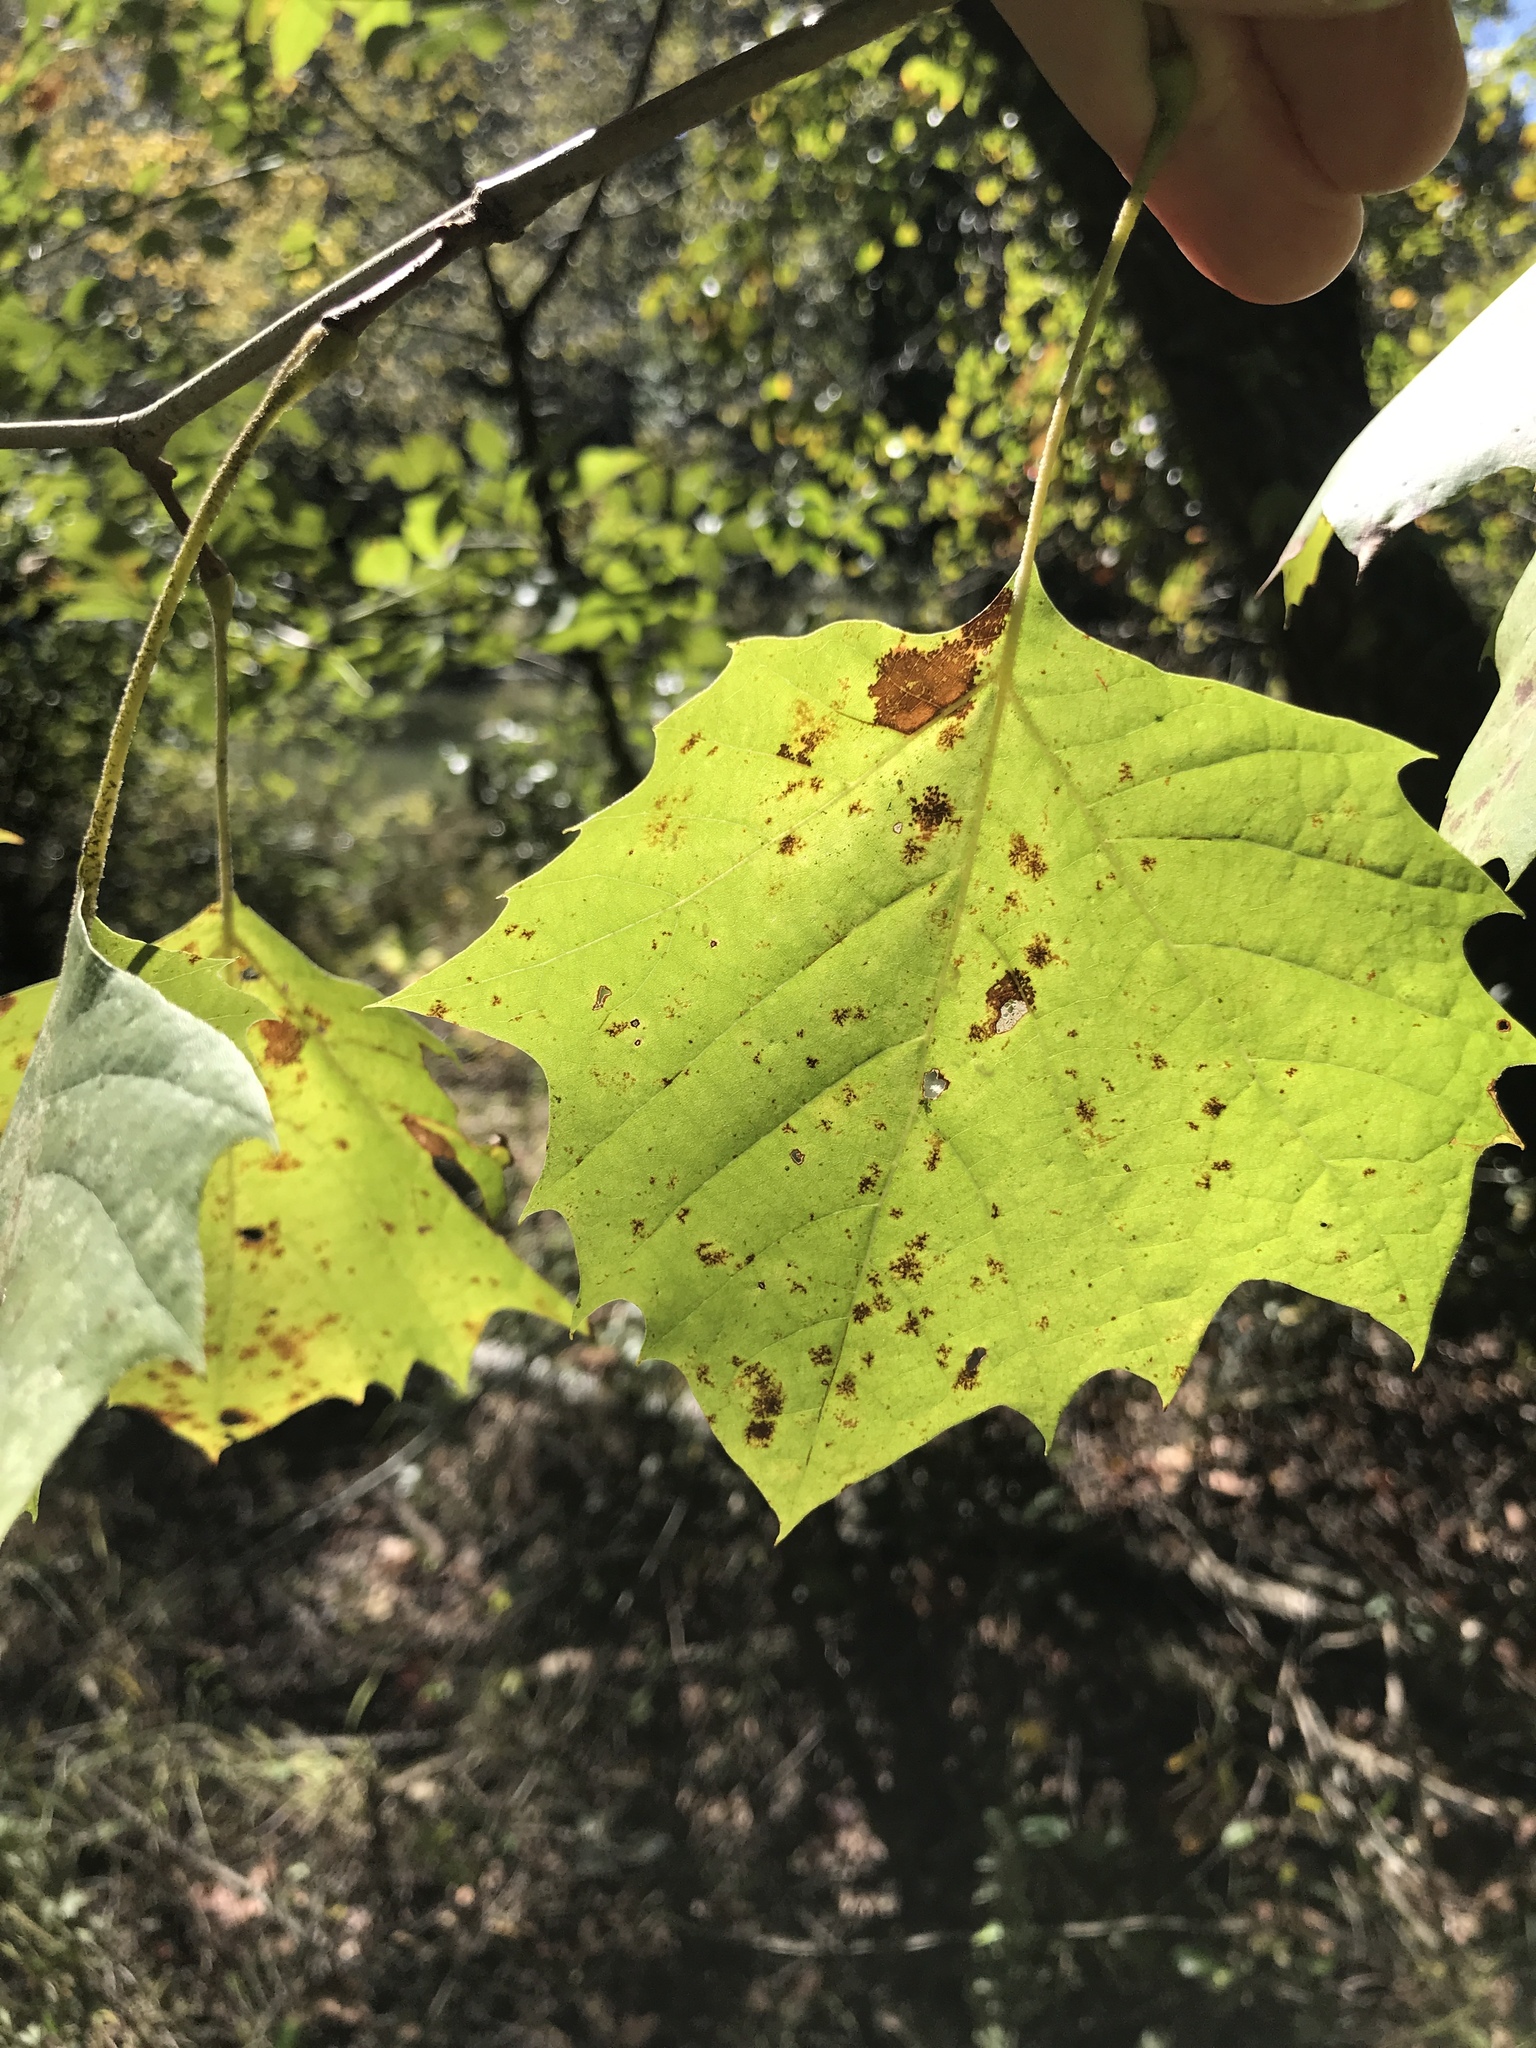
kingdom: Plantae
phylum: Tracheophyta
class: Magnoliopsida
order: Proteales
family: Platanaceae
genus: Platanus
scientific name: Platanus occidentalis
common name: American sycamore
